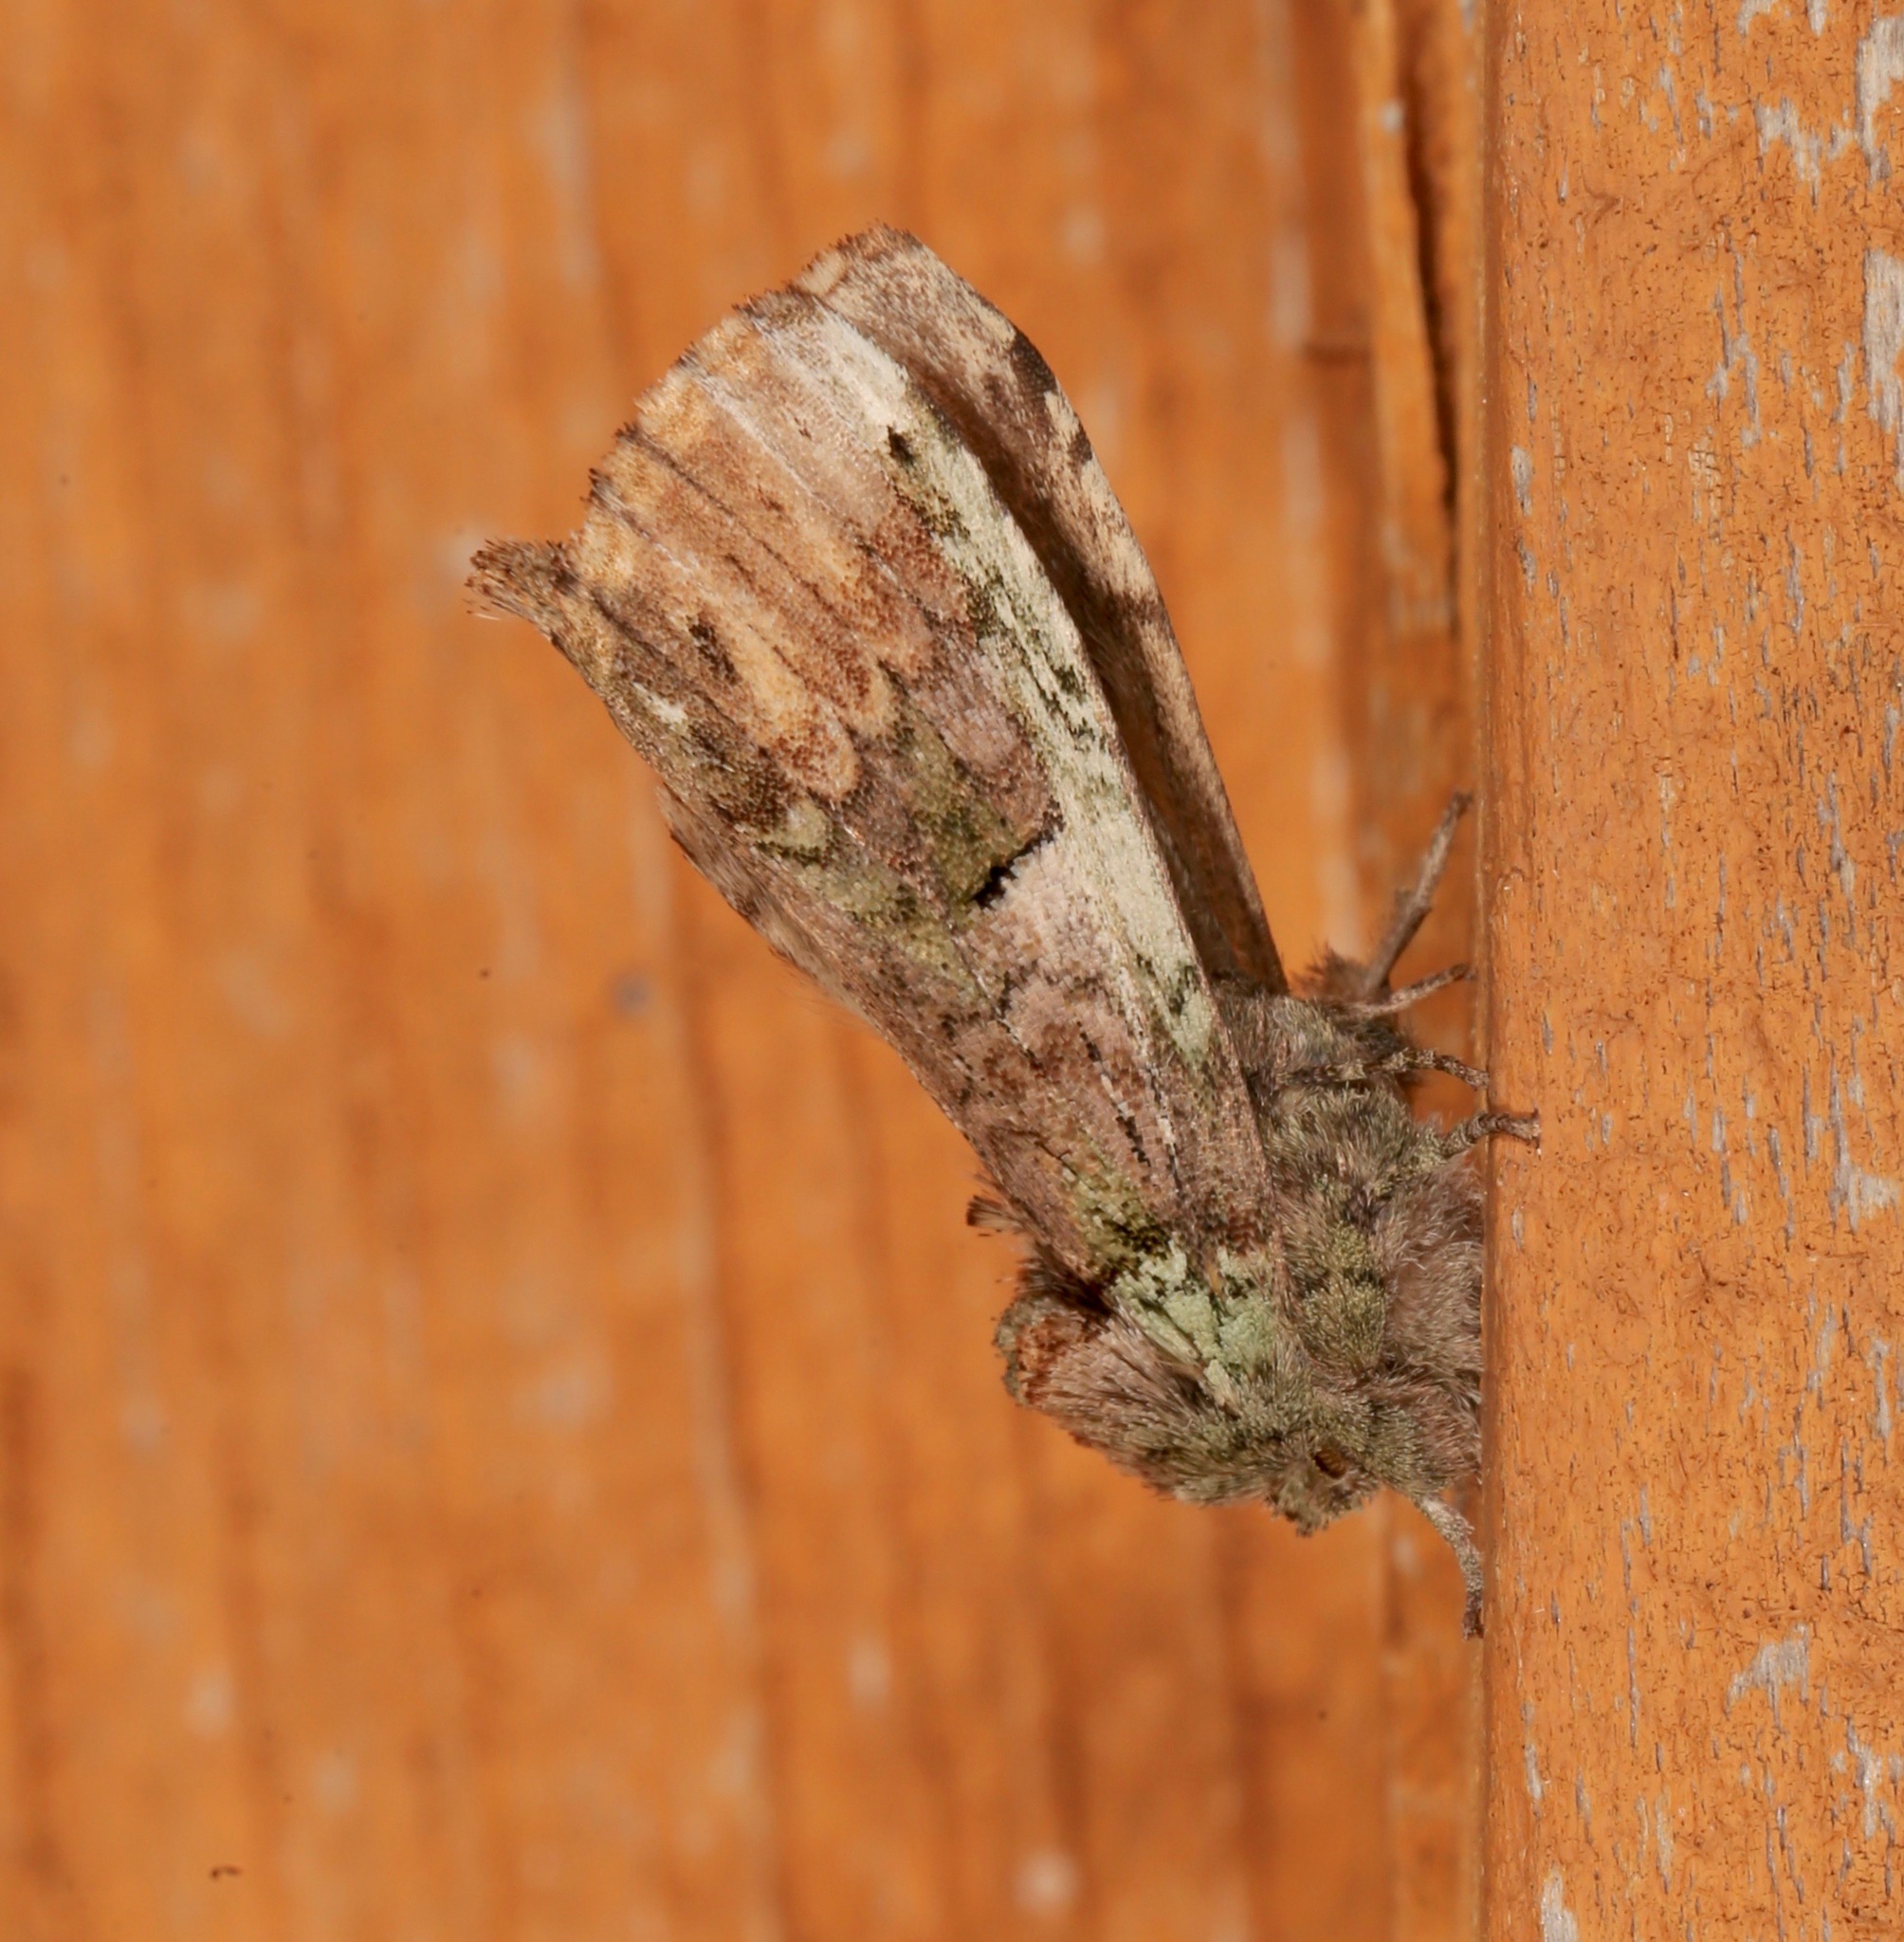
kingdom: Animalia
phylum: Arthropoda
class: Insecta
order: Lepidoptera
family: Notodontidae
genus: Schizura
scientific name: Schizura
